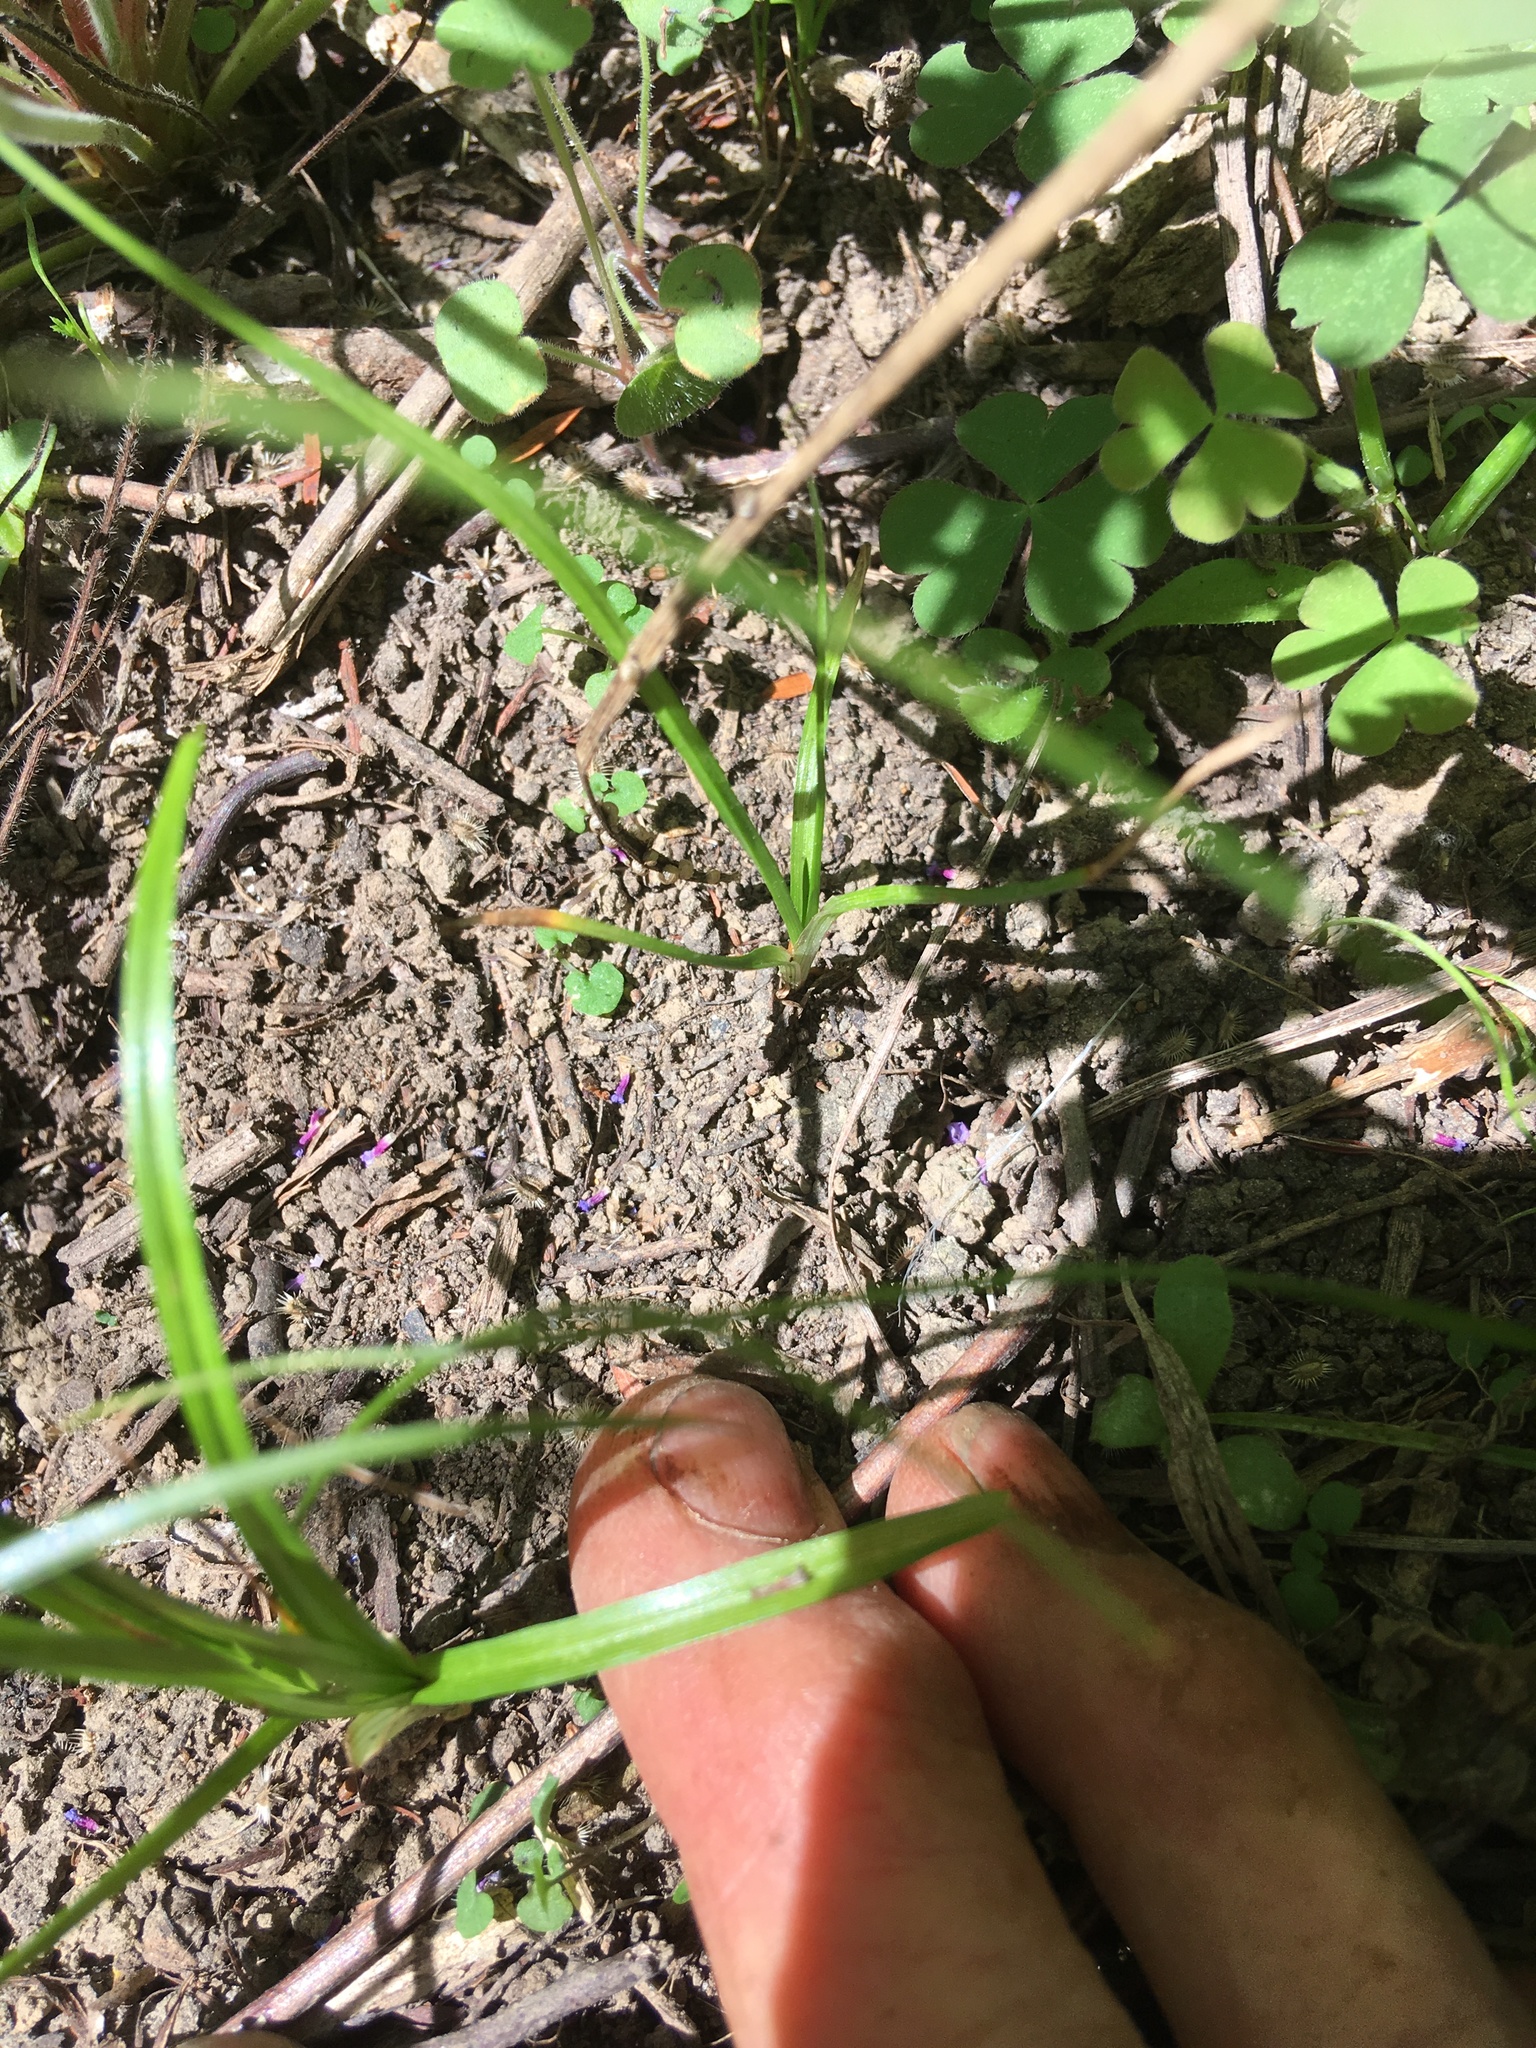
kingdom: Plantae
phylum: Tracheophyta
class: Liliopsida
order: Poales
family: Cyperaceae
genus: Cyperus
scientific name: Cyperus eragrostis
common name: Tall flatsedge
